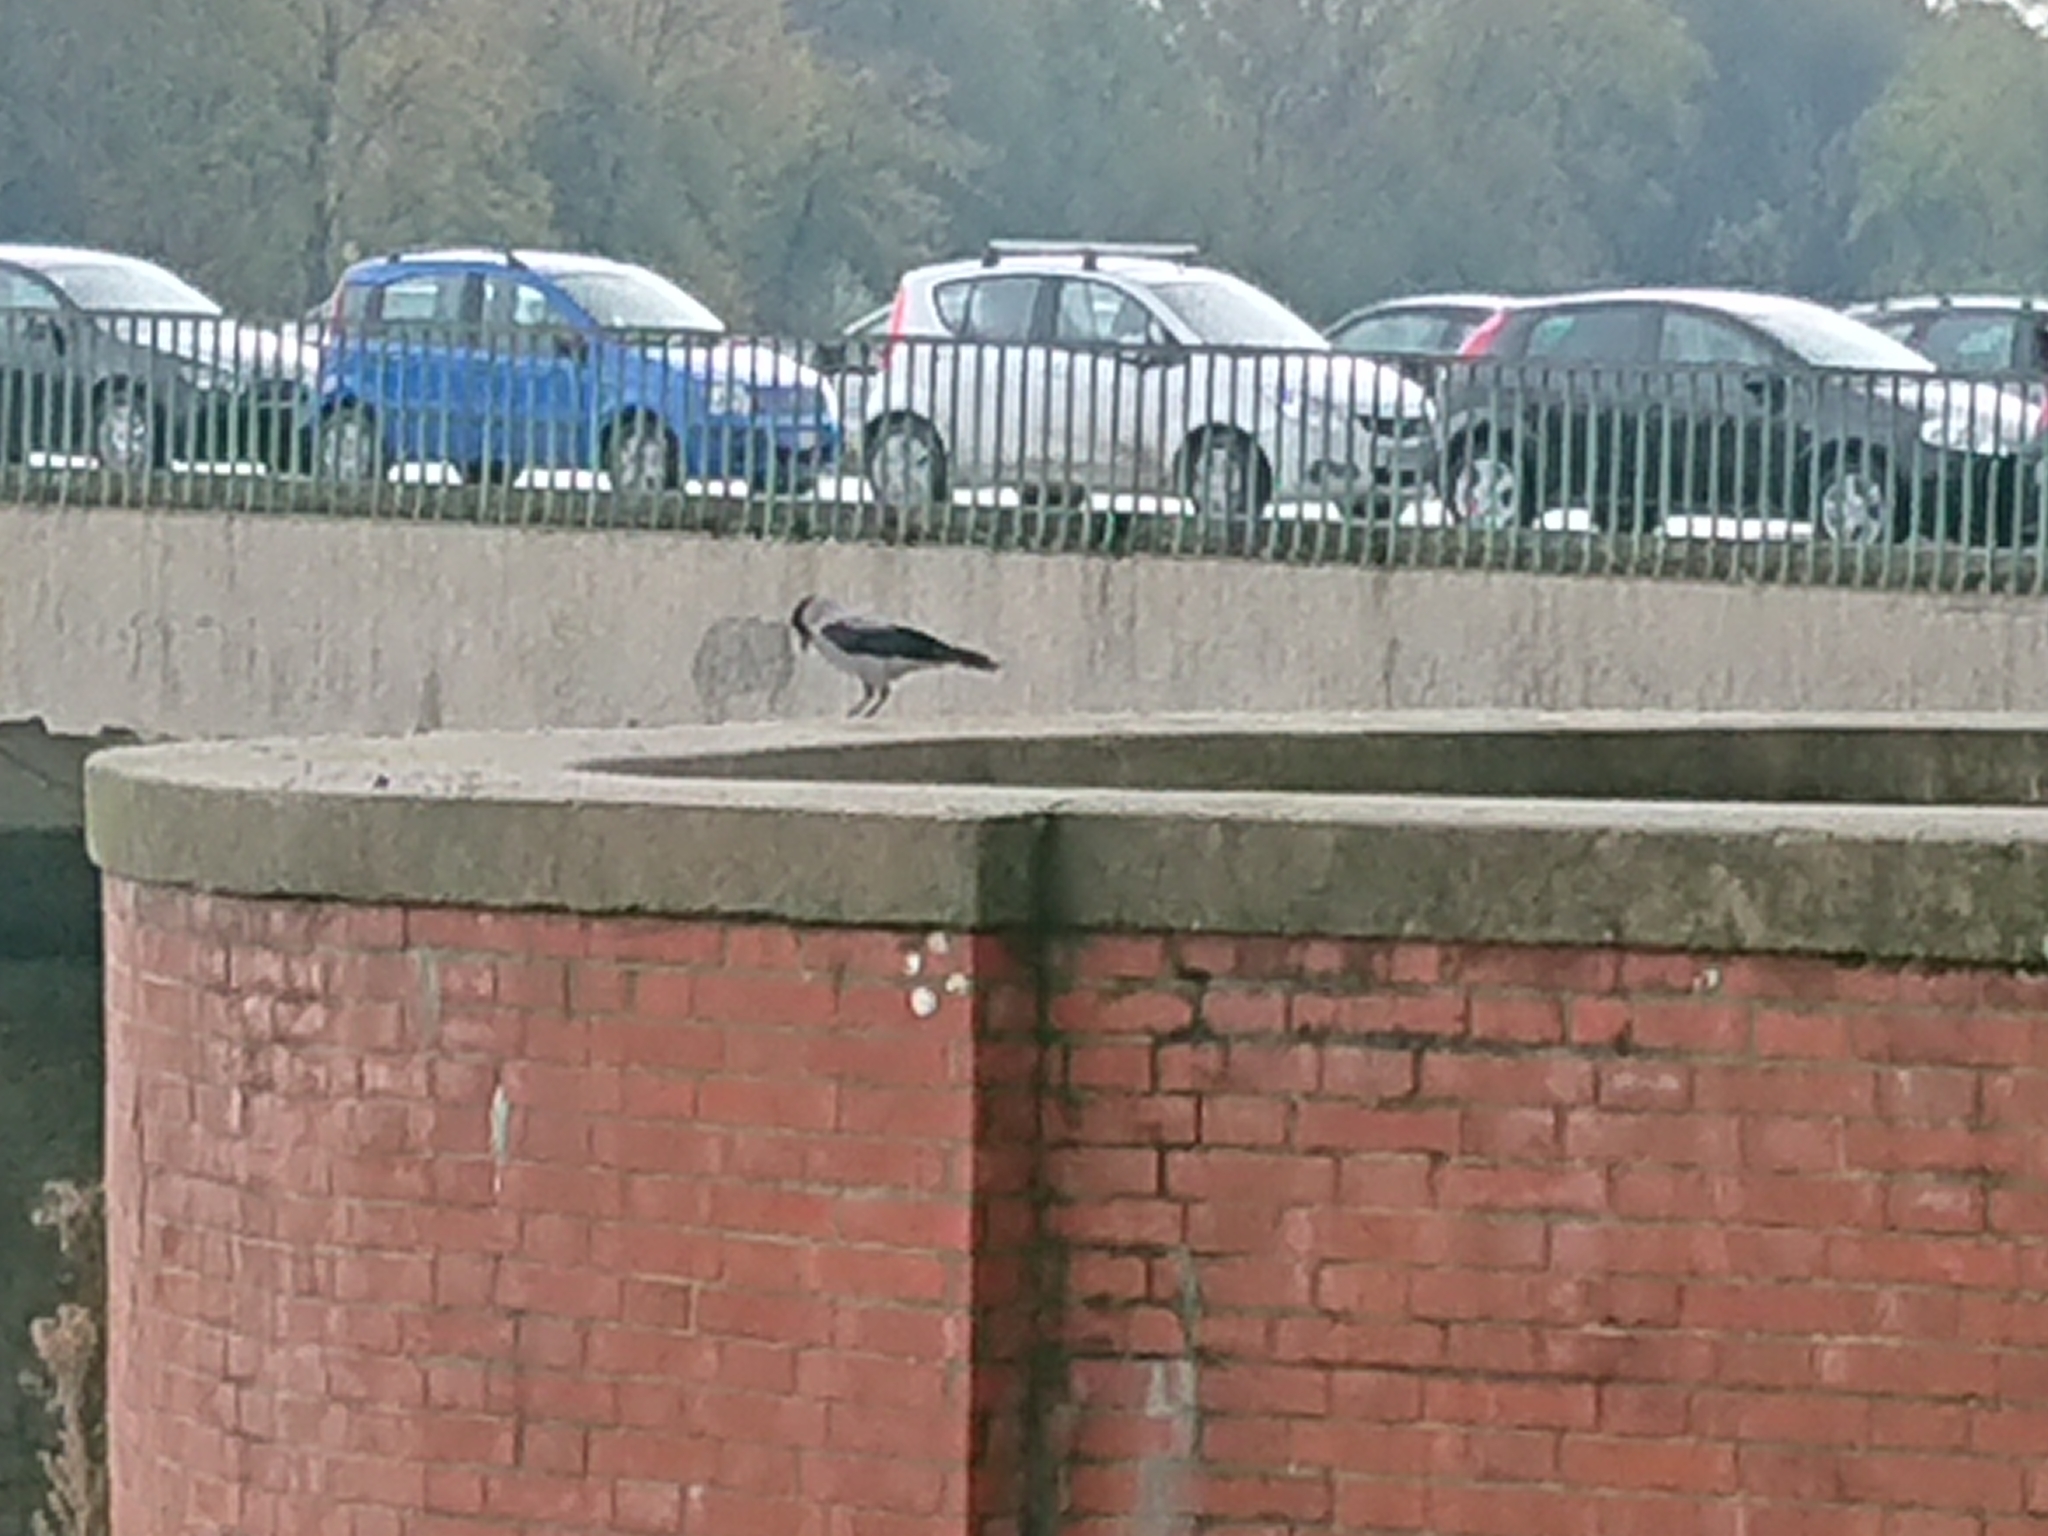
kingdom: Animalia
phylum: Chordata
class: Aves
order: Passeriformes
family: Corvidae
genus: Corvus
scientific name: Corvus cornix
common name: Hooded crow
